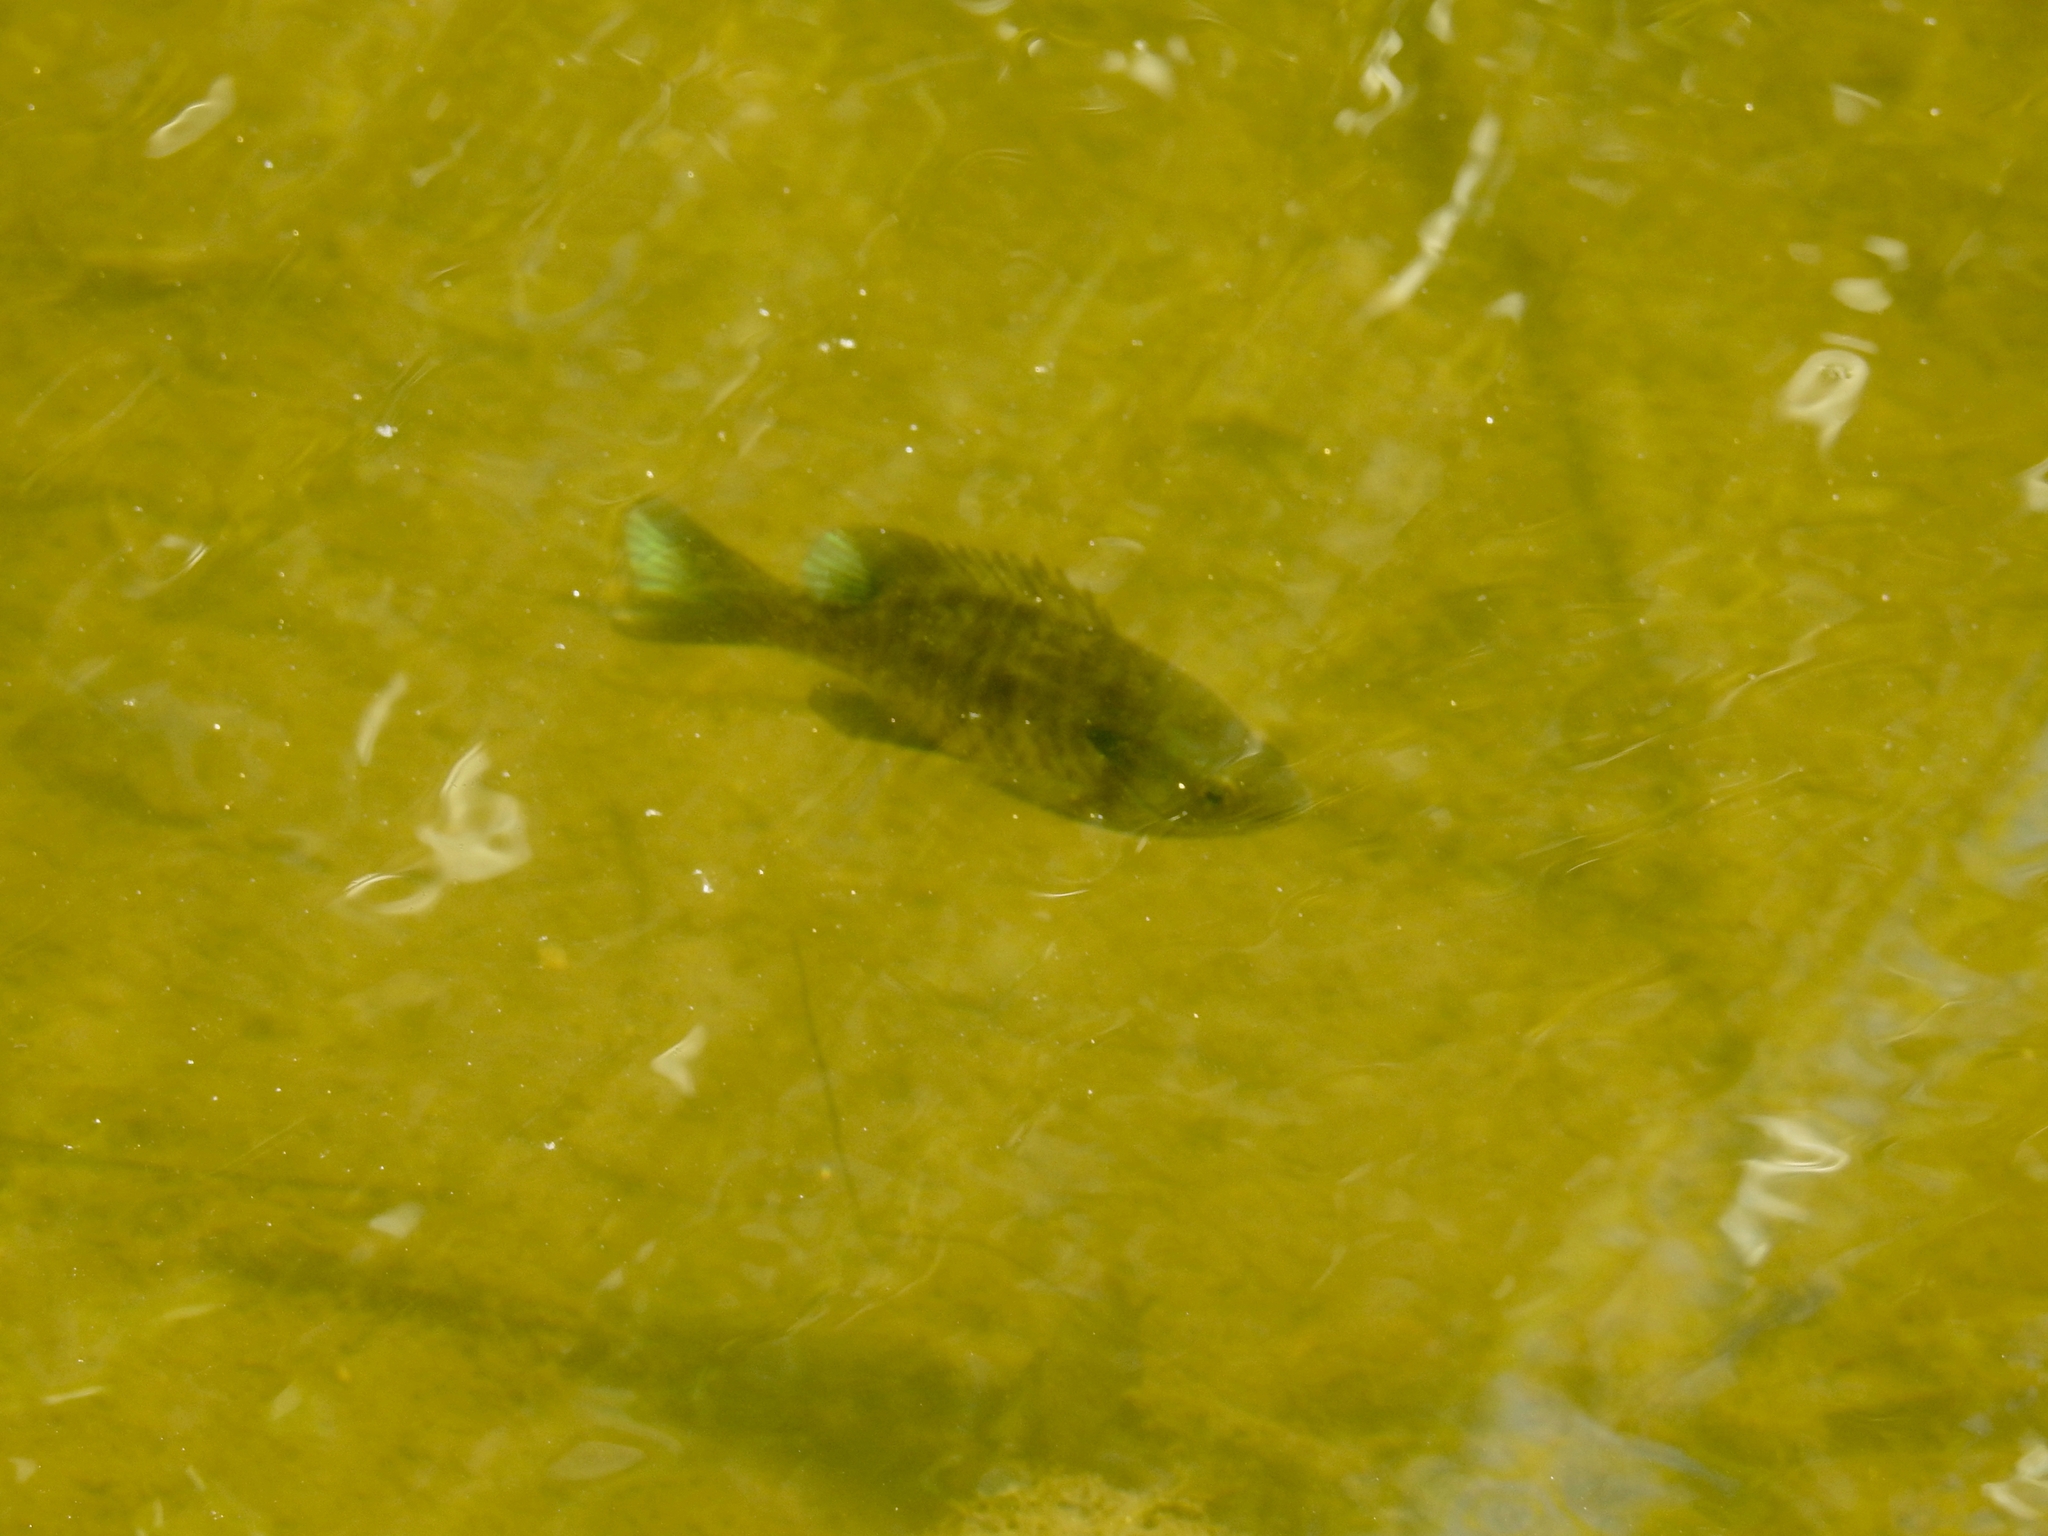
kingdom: Animalia
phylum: Chordata
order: Perciformes
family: Centrarchidae
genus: Lepomis
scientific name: Lepomis macrochirus
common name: Bluegill
